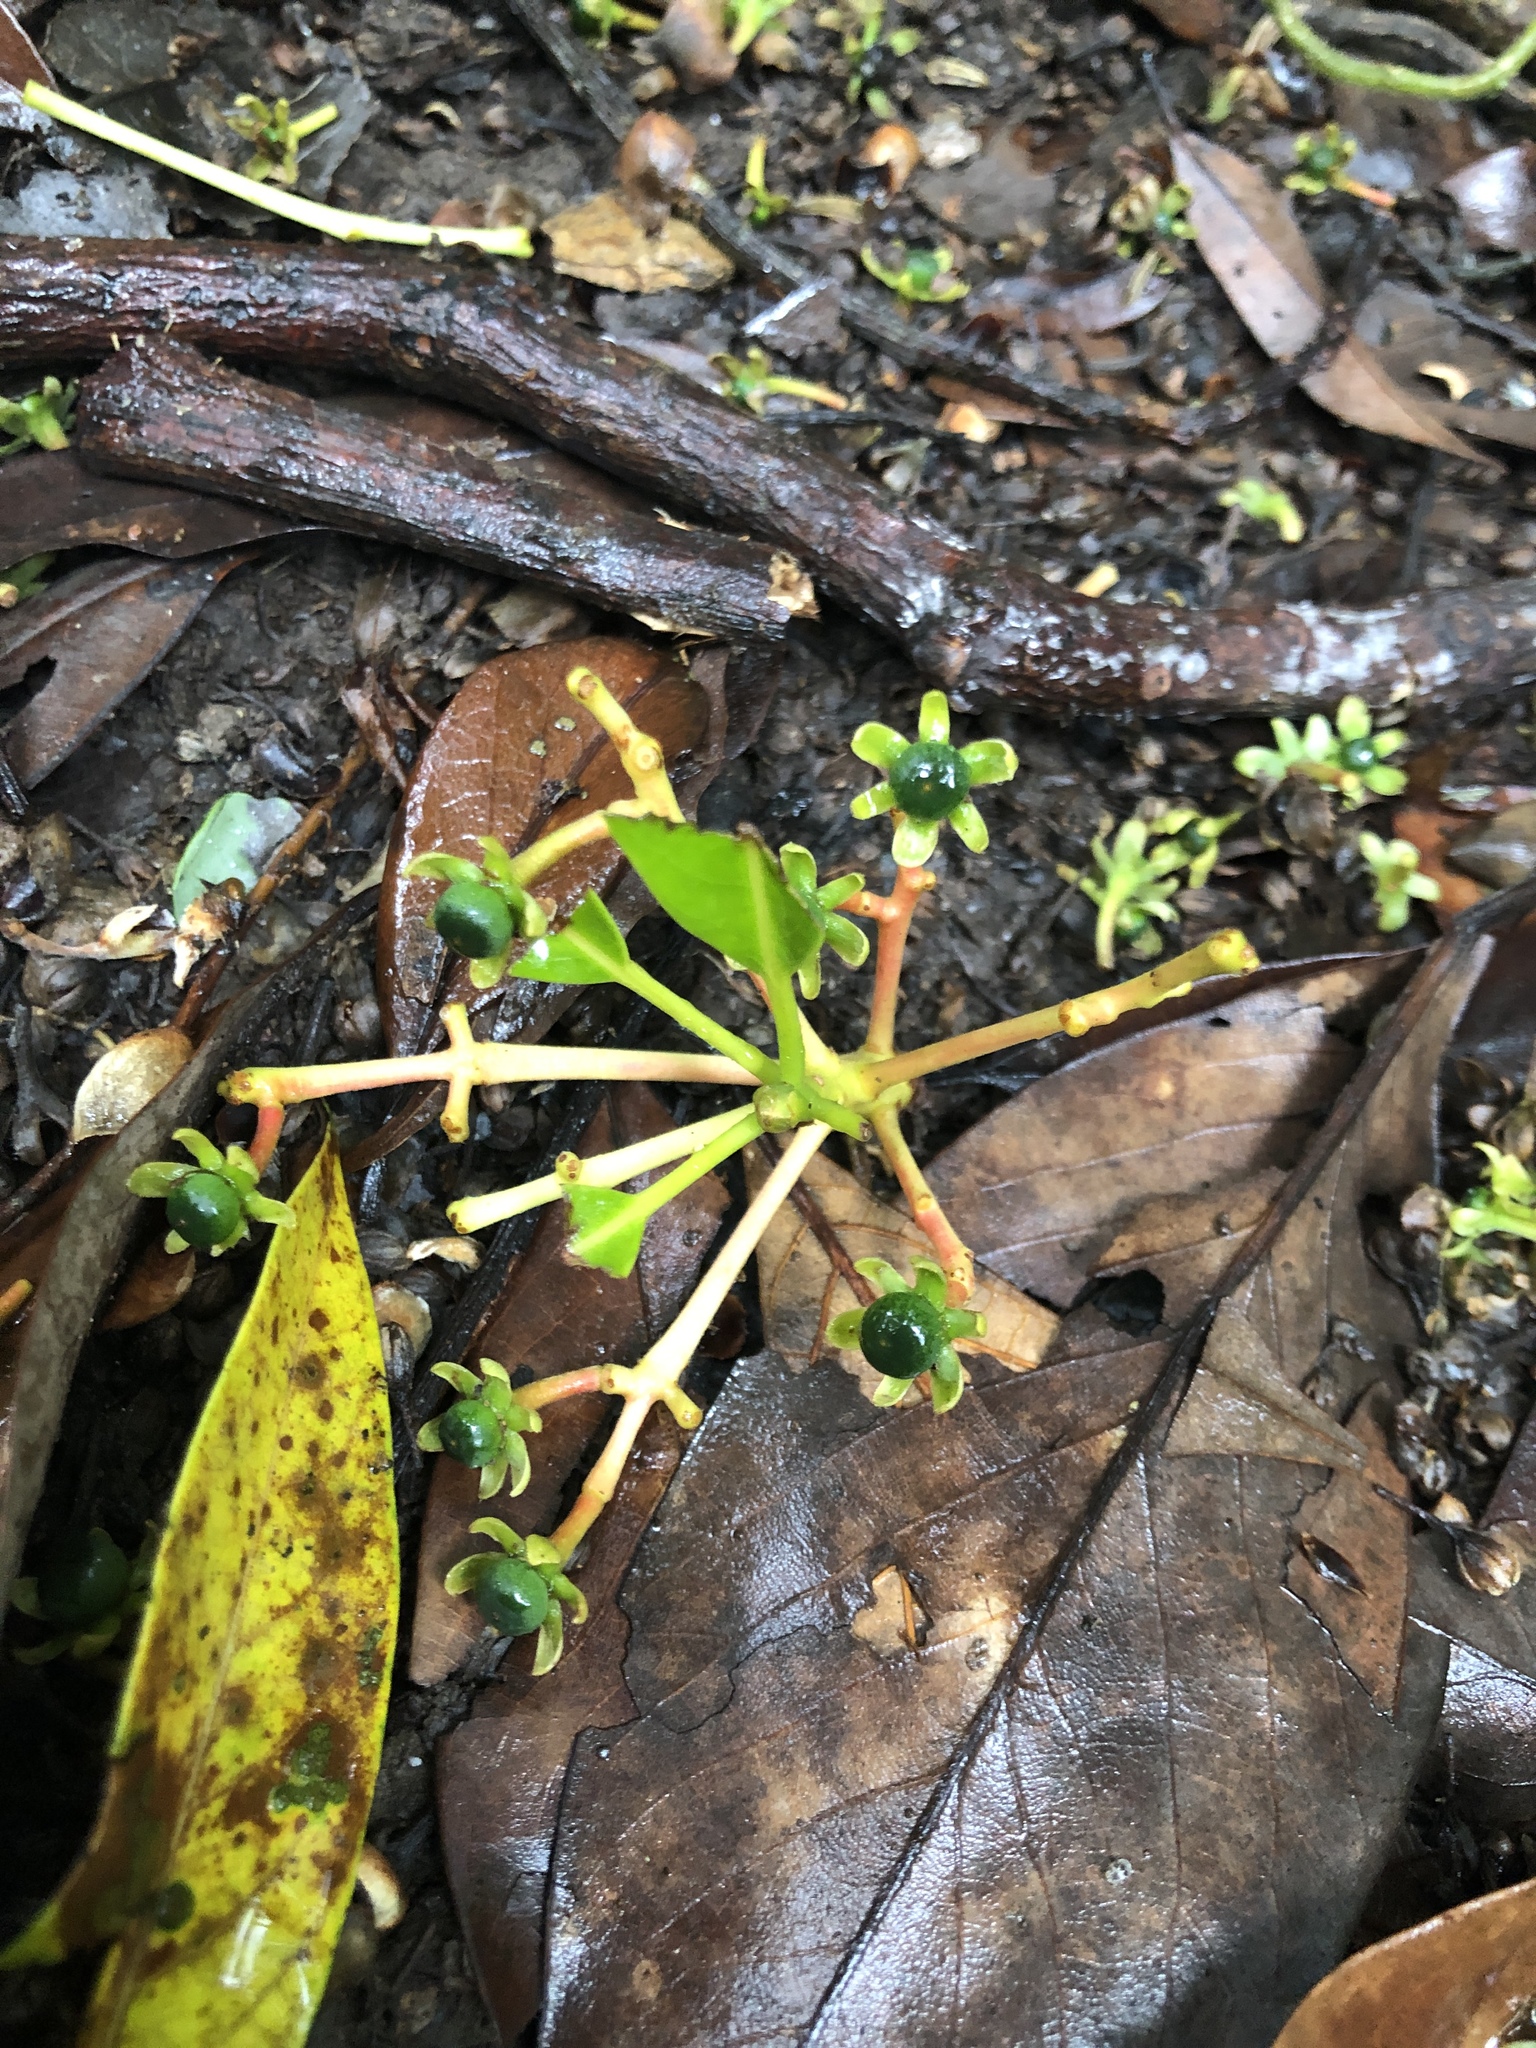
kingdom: Plantae
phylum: Tracheophyta
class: Magnoliopsida
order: Laurales
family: Lauraceae
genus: Machilus
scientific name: Machilus japonica
